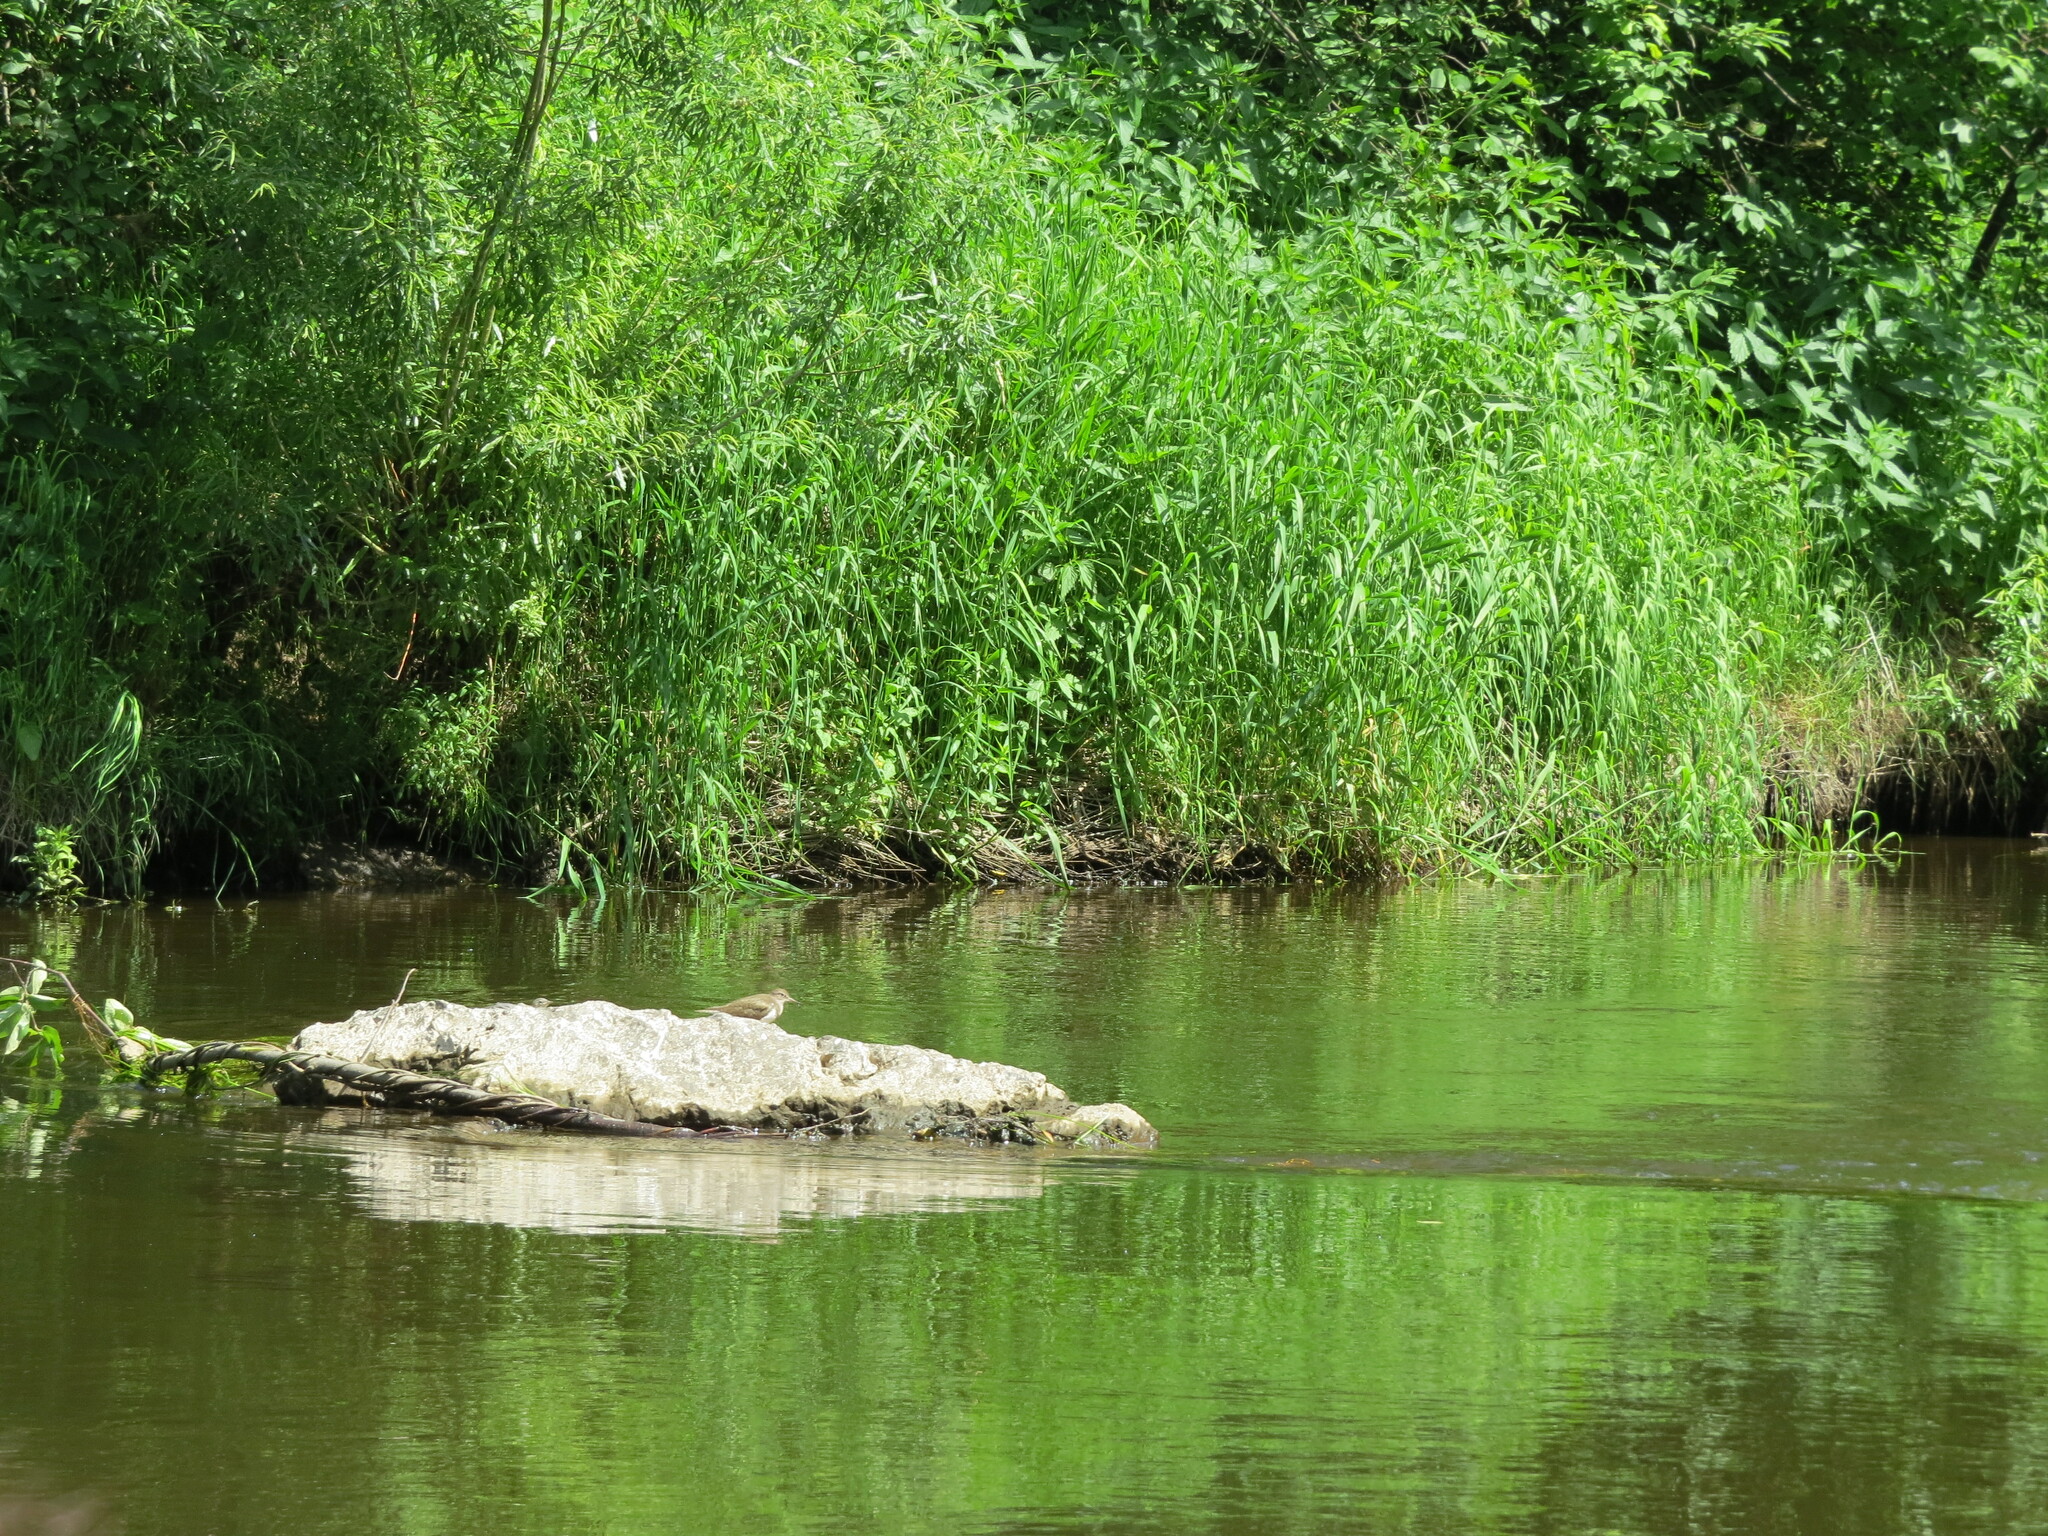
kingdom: Animalia
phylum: Chordata
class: Aves
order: Charadriiformes
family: Scolopacidae
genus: Actitis
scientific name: Actitis hypoleucos
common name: Common sandpiper
